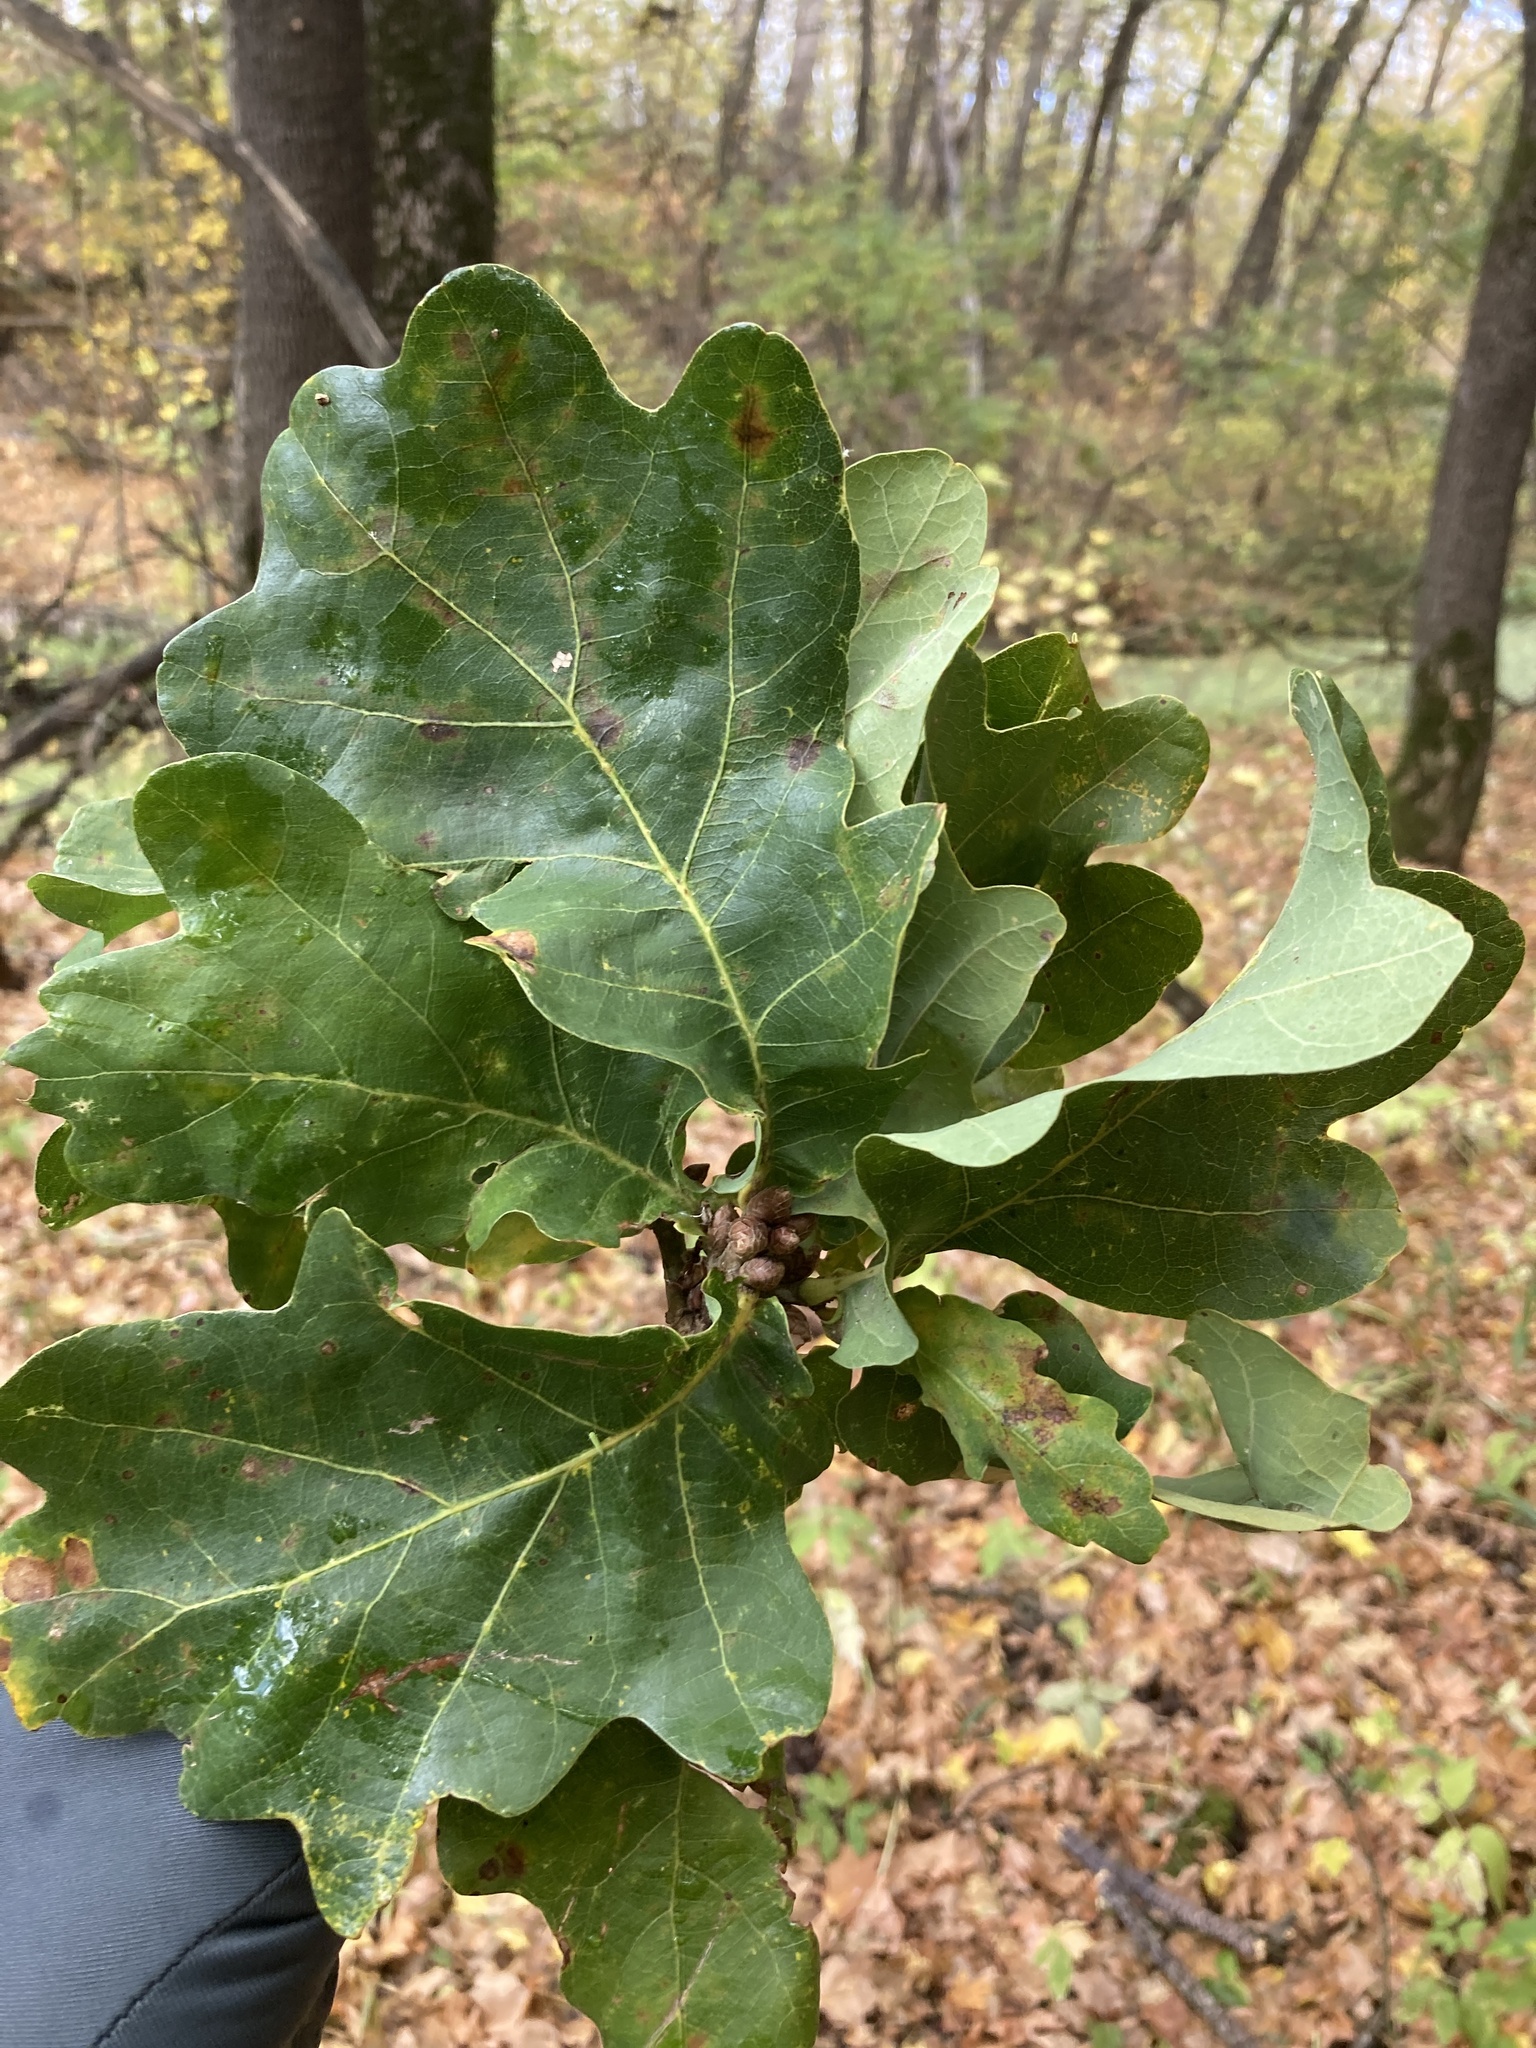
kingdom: Plantae
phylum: Tracheophyta
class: Magnoliopsida
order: Fagales
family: Fagaceae
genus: Quercus
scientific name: Quercus robur
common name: Pedunculate oak
